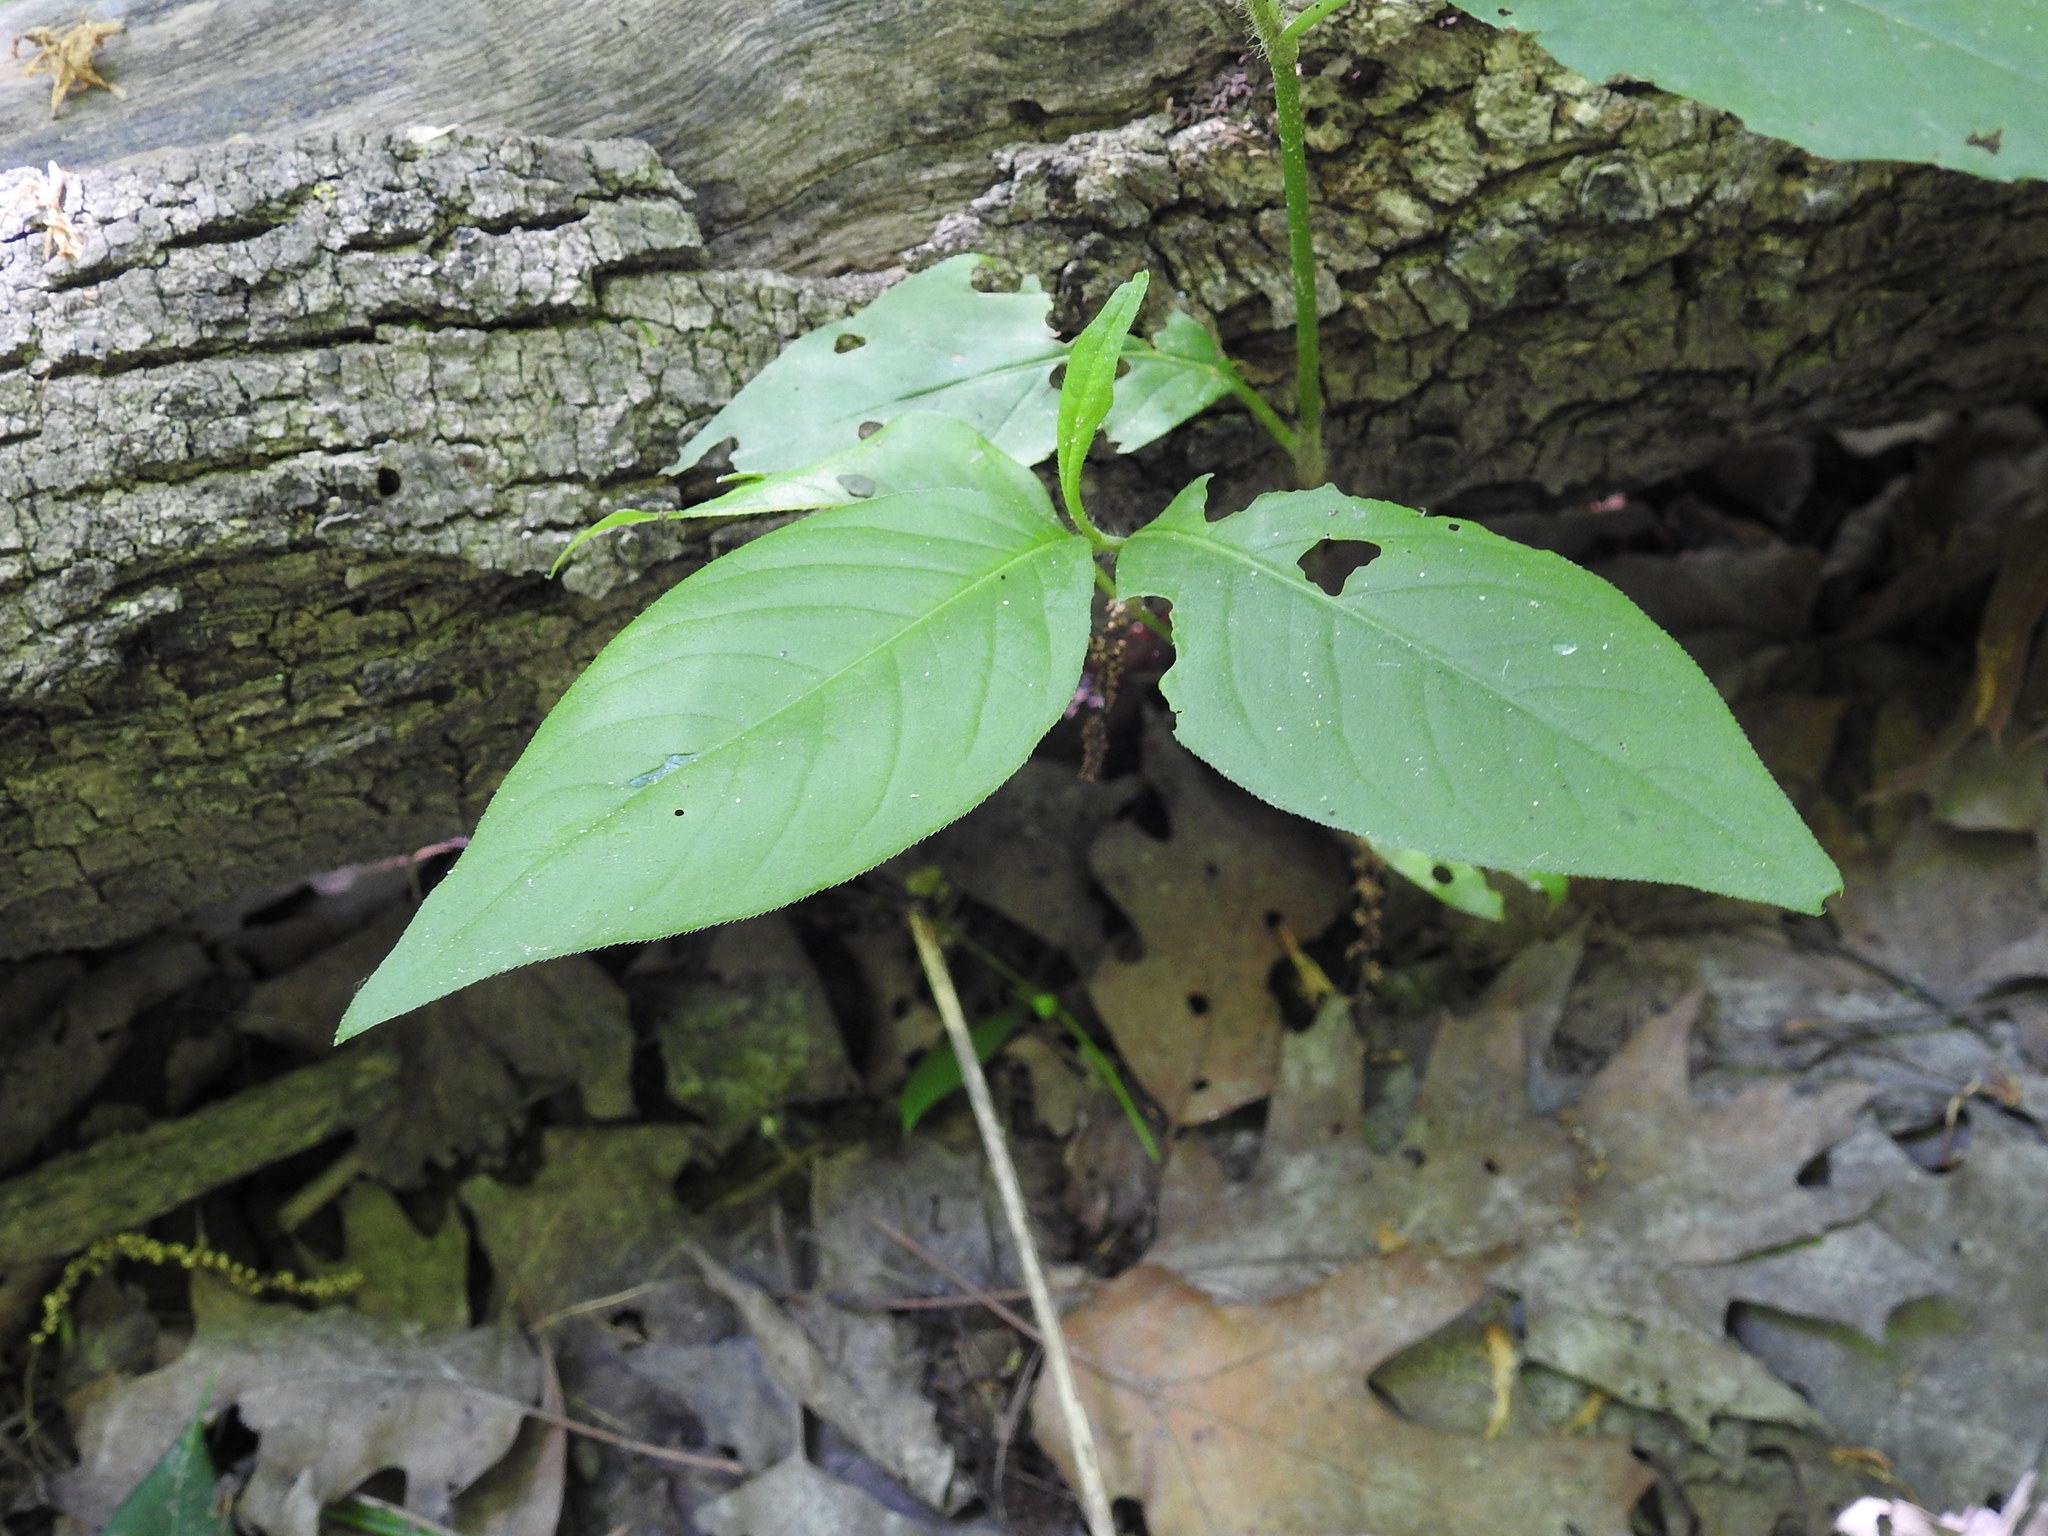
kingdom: Plantae
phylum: Tracheophyta
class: Magnoliopsida
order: Caryophyllales
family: Polygonaceae
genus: Persicaria
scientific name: Persicaria virginiana
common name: Jumpseed
